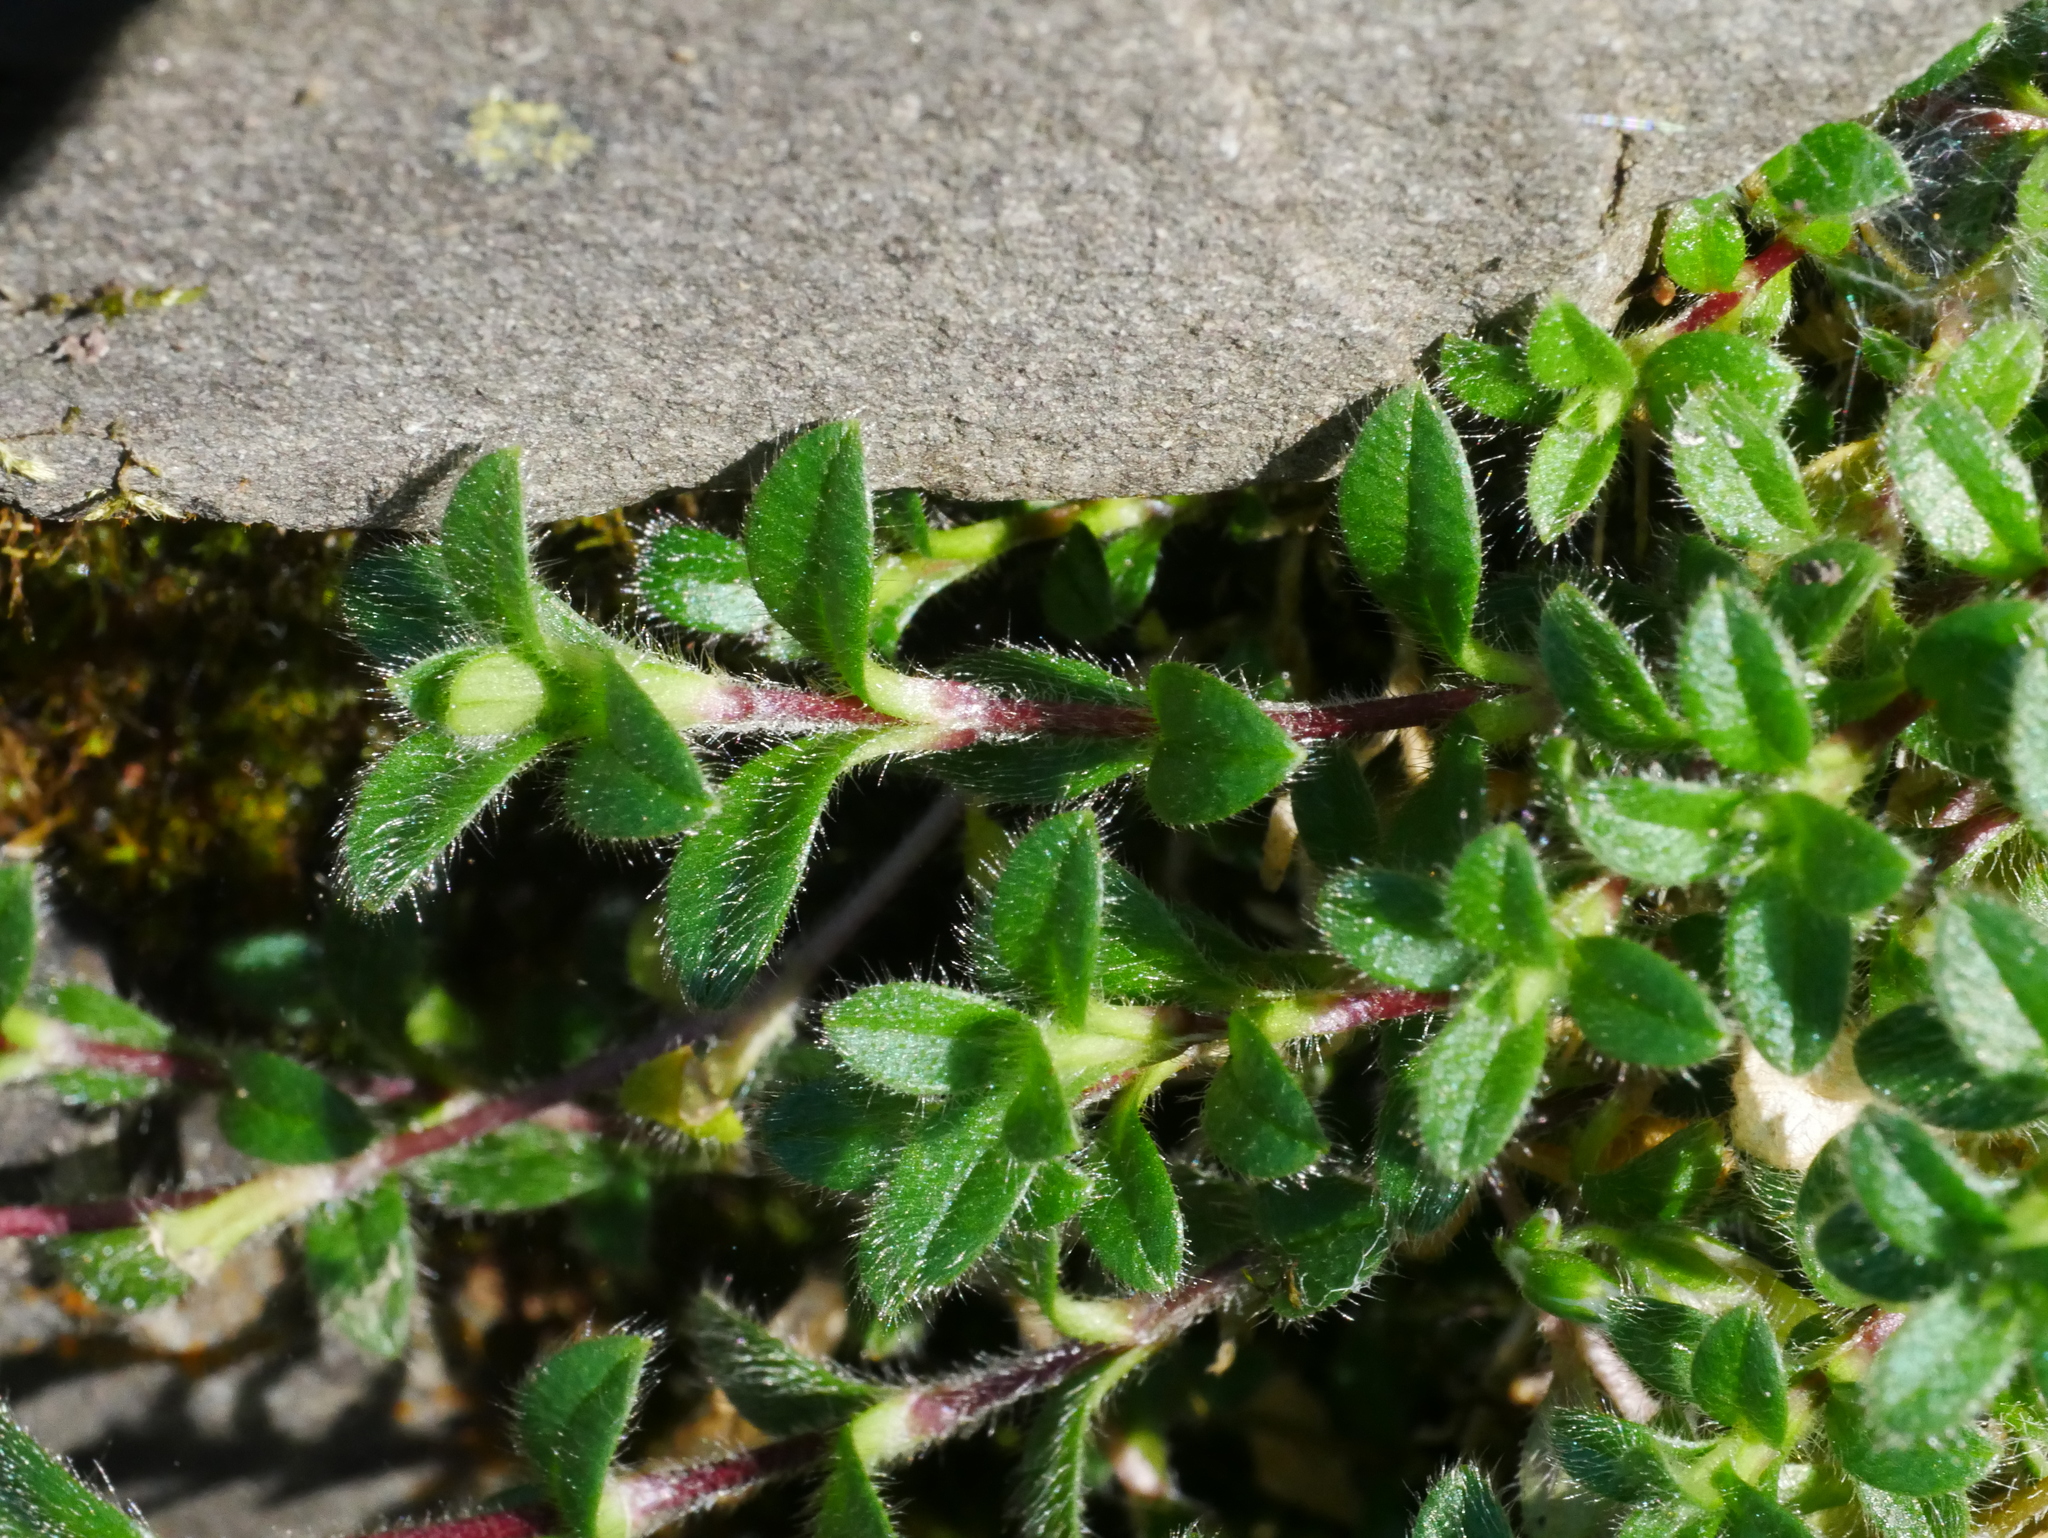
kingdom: Plantae
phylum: Tracheophyta
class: Magnoliopsida
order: Caryophyllales
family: Caryophyllaceae
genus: Cerastium
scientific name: Cerastium morrisonense
